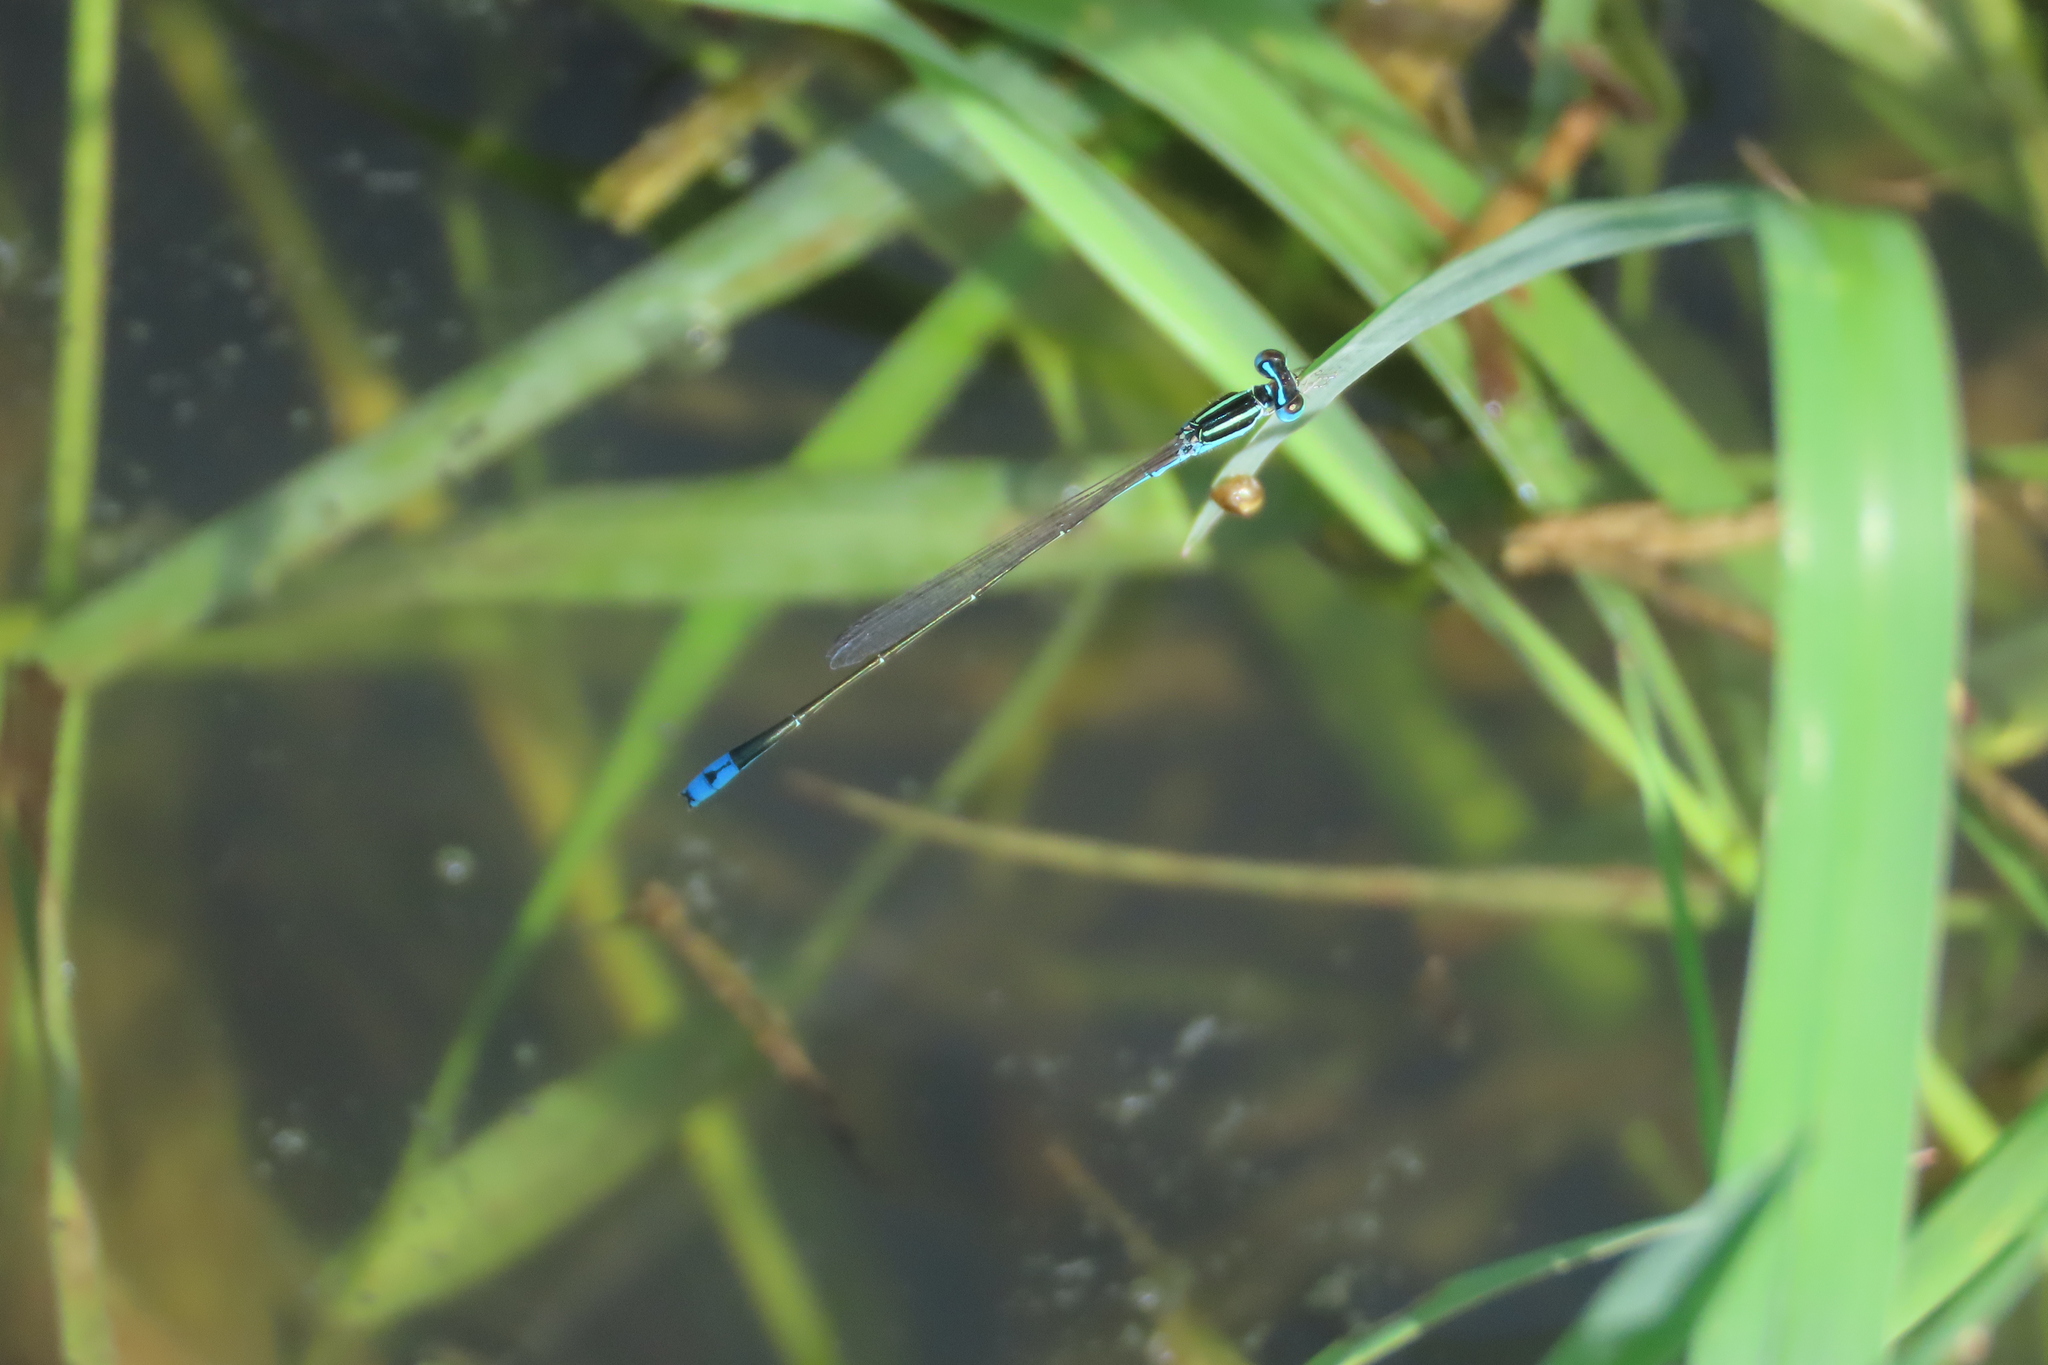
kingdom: Animalia
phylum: Arthropoda
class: Insecta
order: Odonata
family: Coenagrionidae
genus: Aciagrion
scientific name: Aciagrion occidentale
